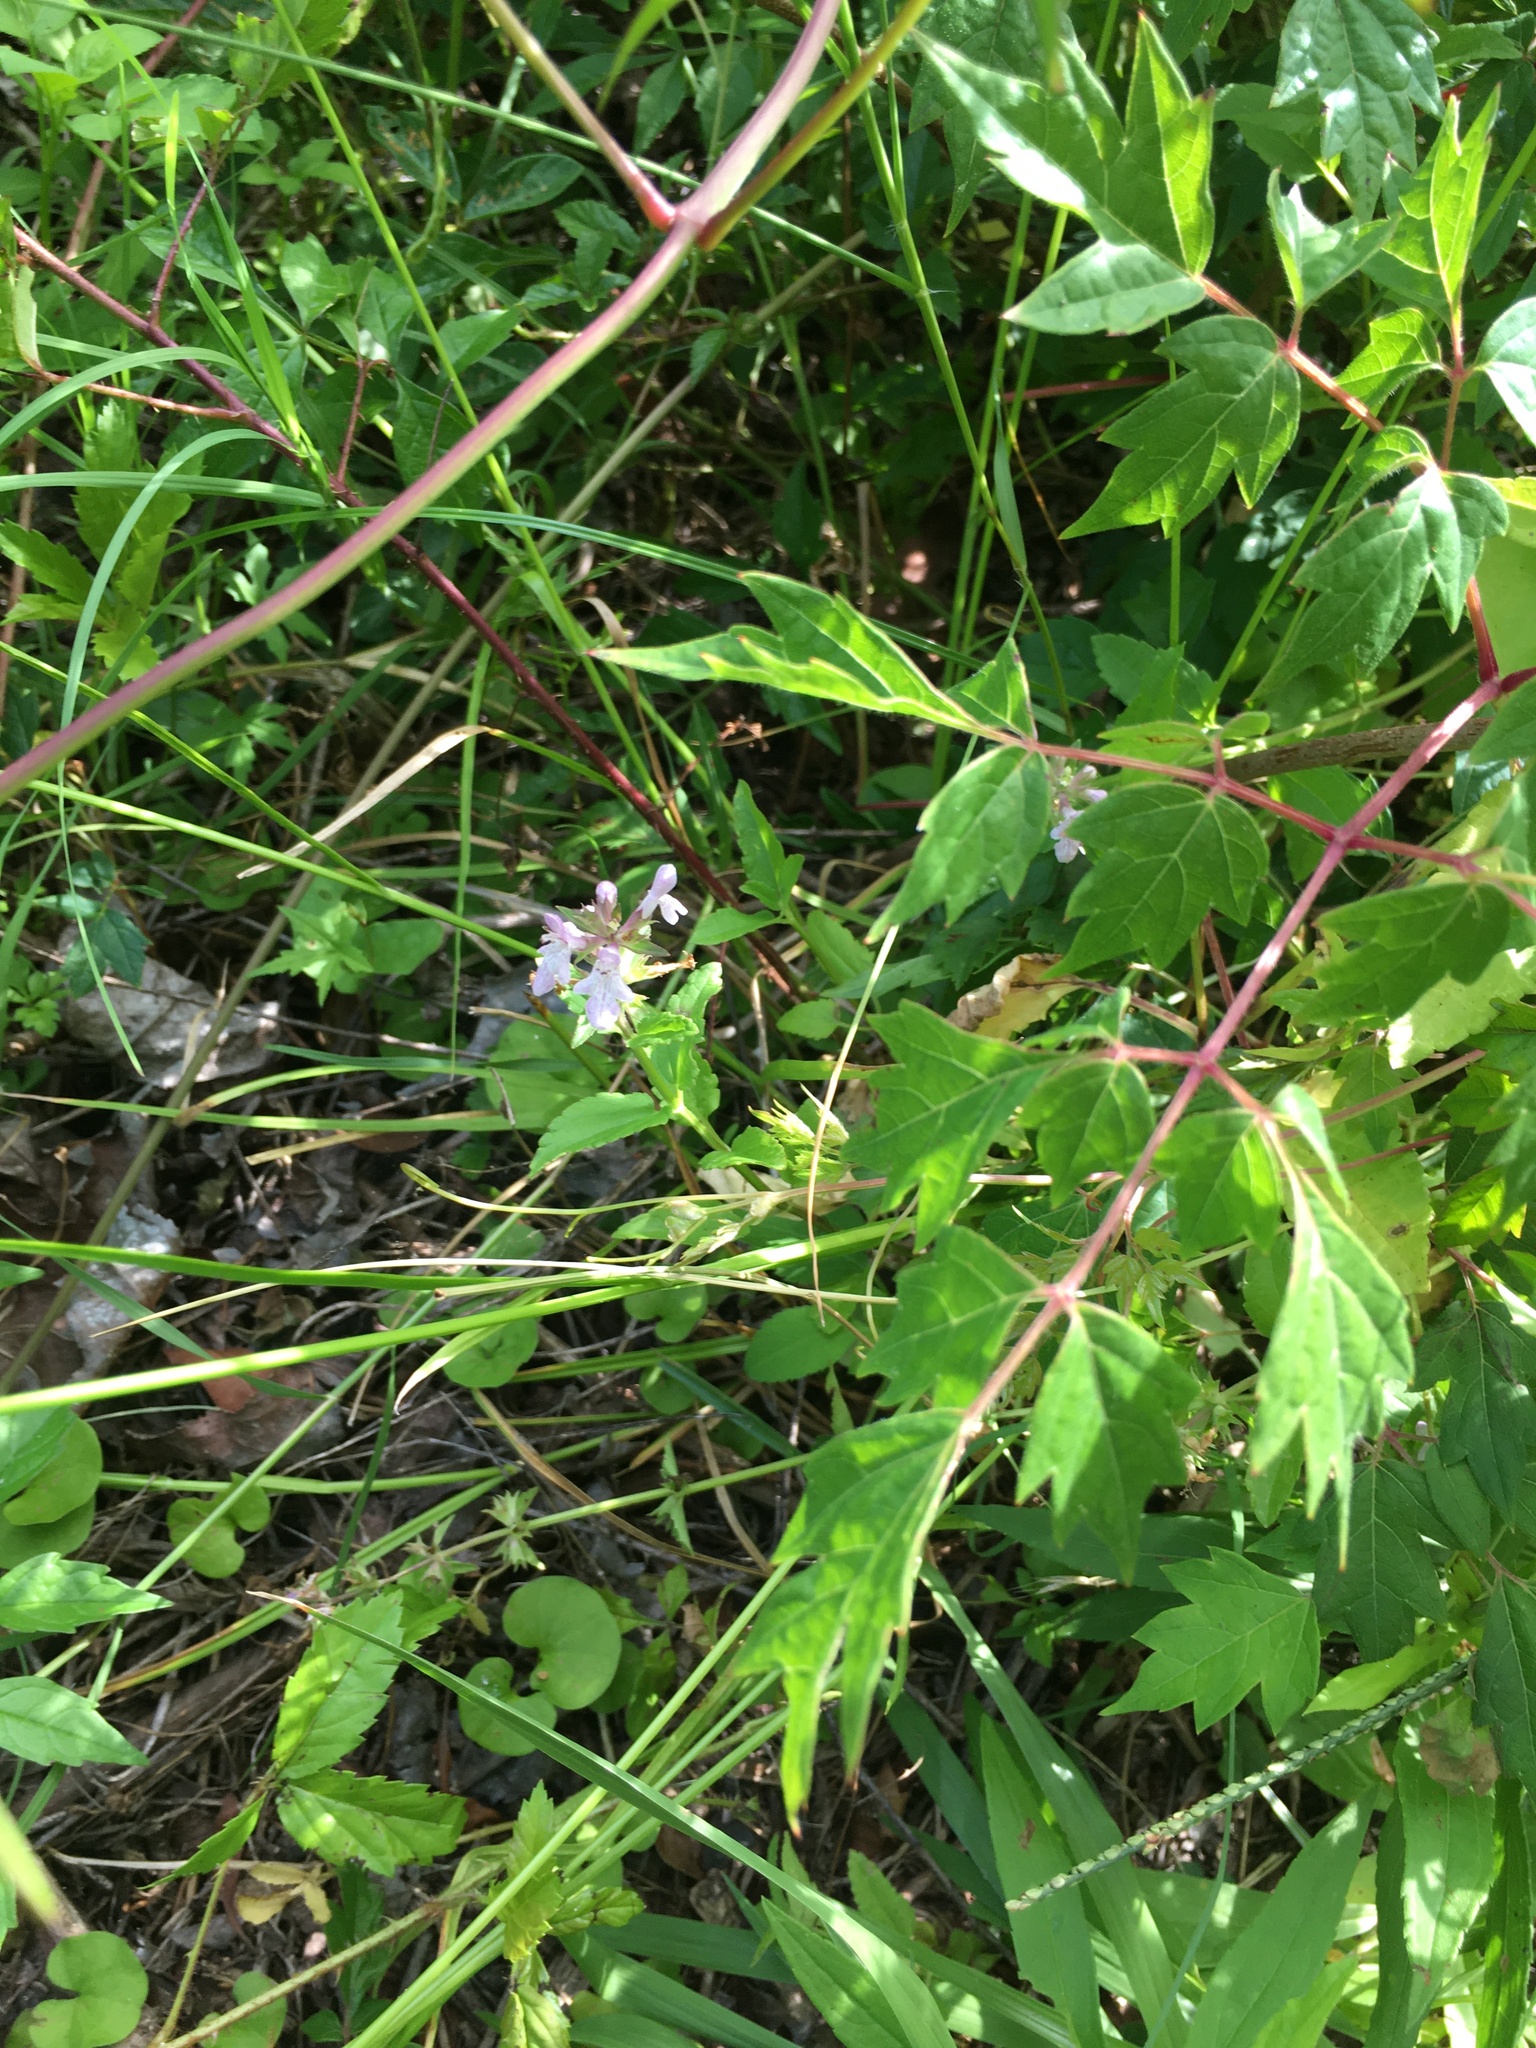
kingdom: Plantae
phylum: Tracheophyta
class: Magnoliopsida
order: Lamiales
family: Lamiaceae
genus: Stachys
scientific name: Stachys floridana
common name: Florida betony
